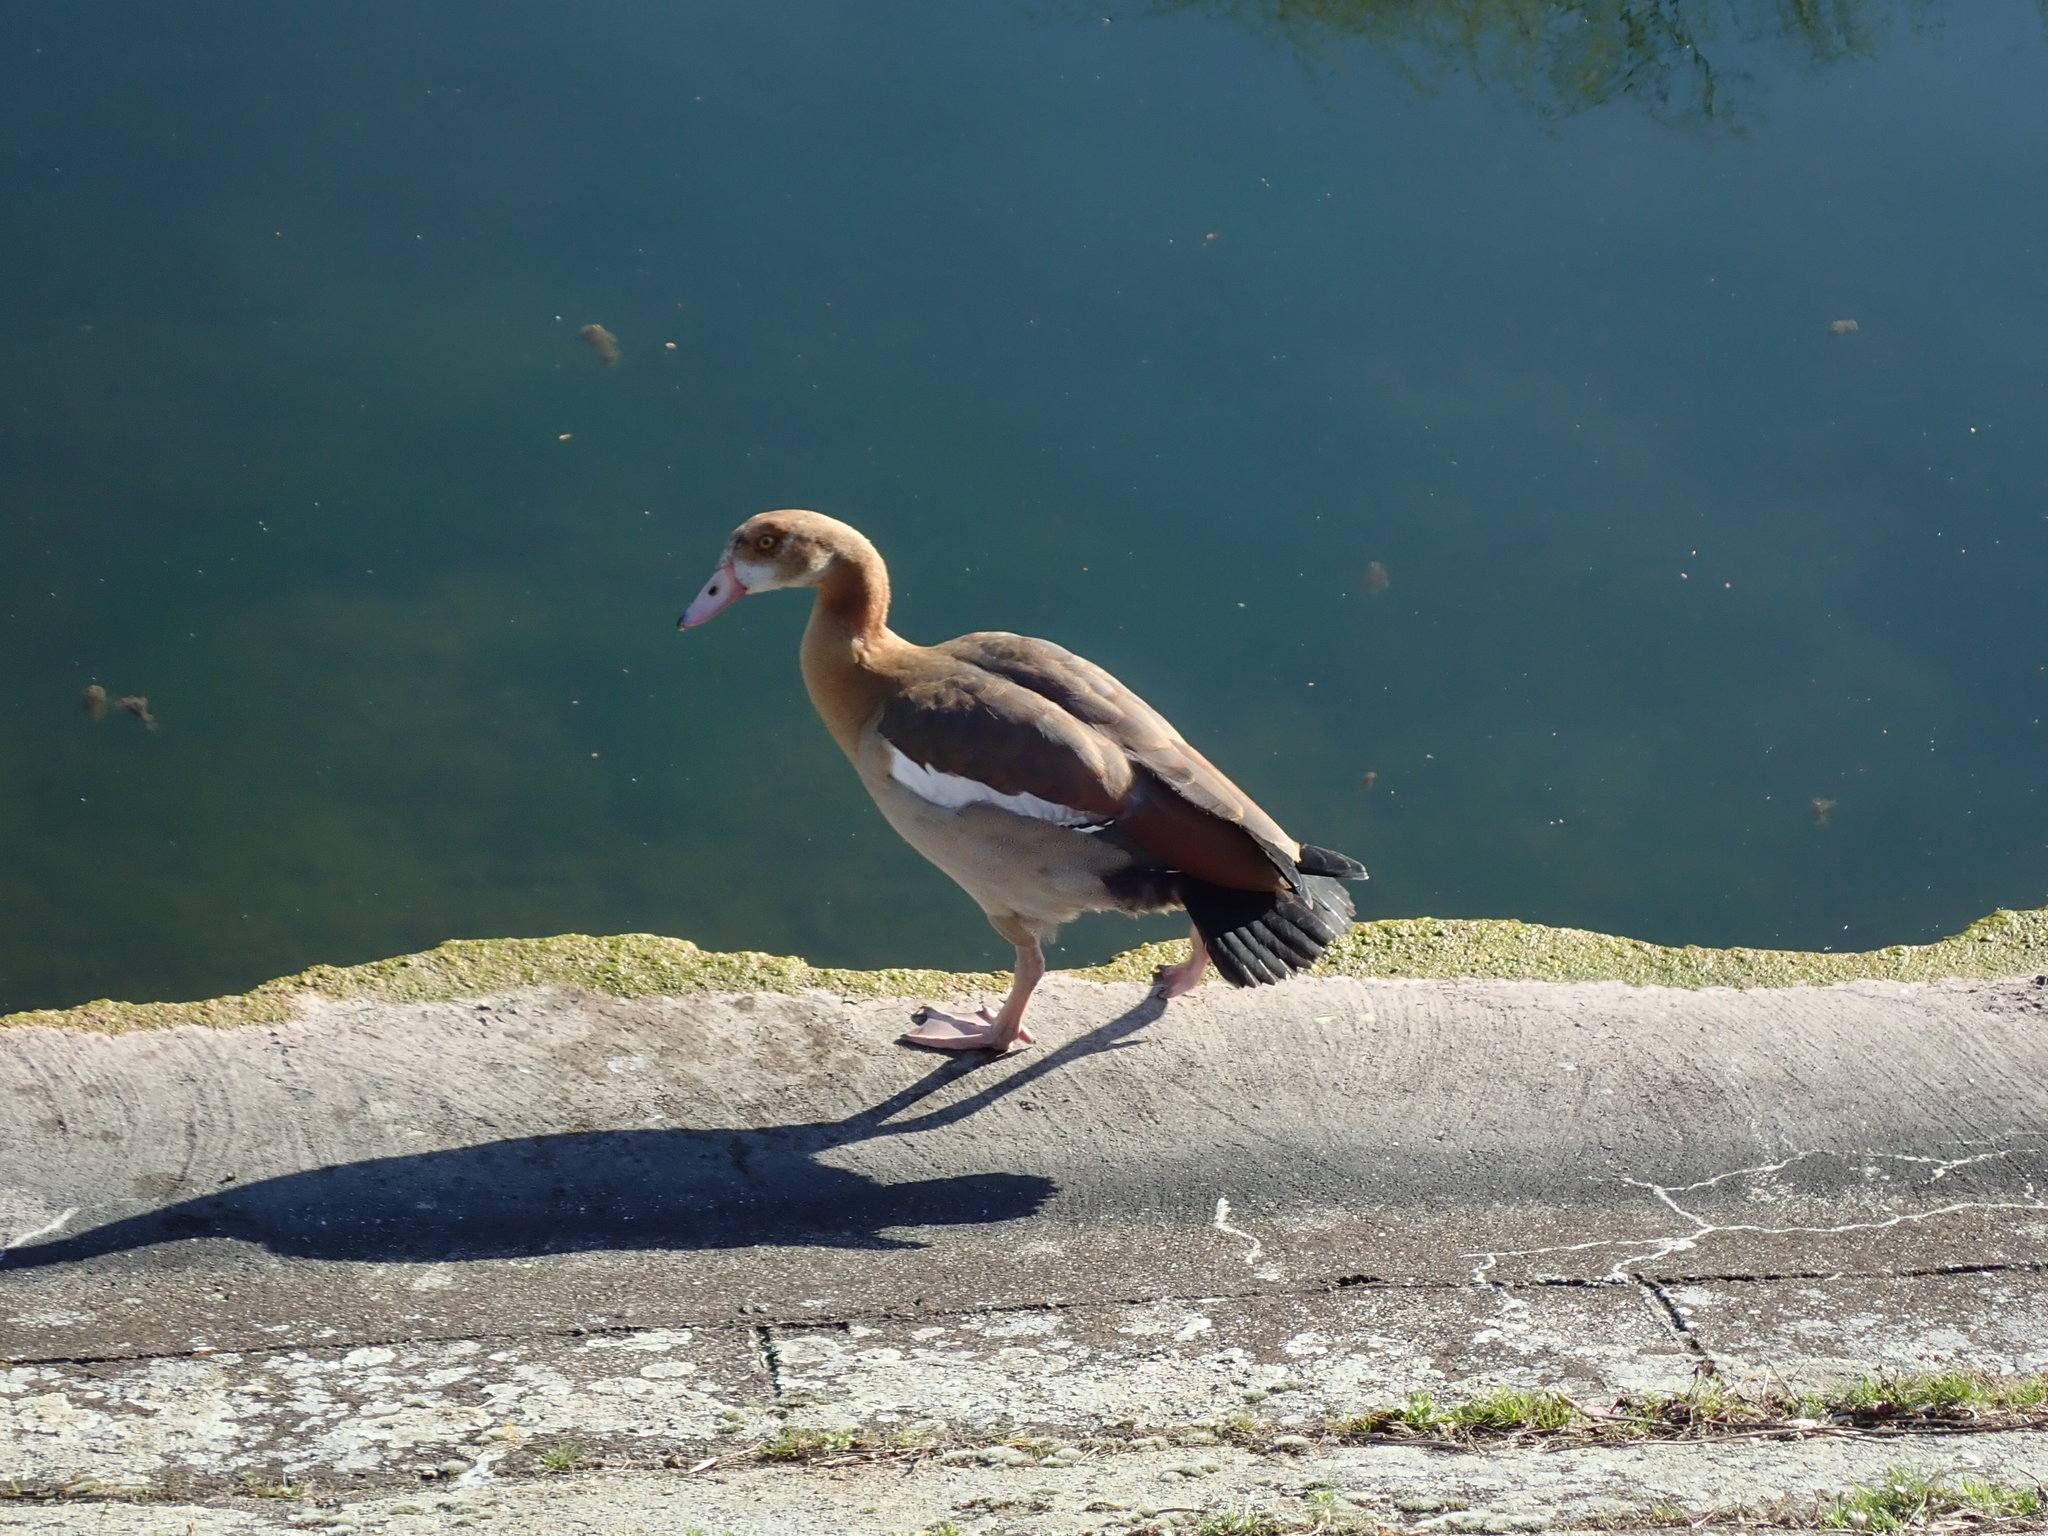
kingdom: Animalia
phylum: Chordata
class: Aves
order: Anseriformes
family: Anatidae
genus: Alopochen
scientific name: Alopochen aegyptiaca
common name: Egyptian goose
